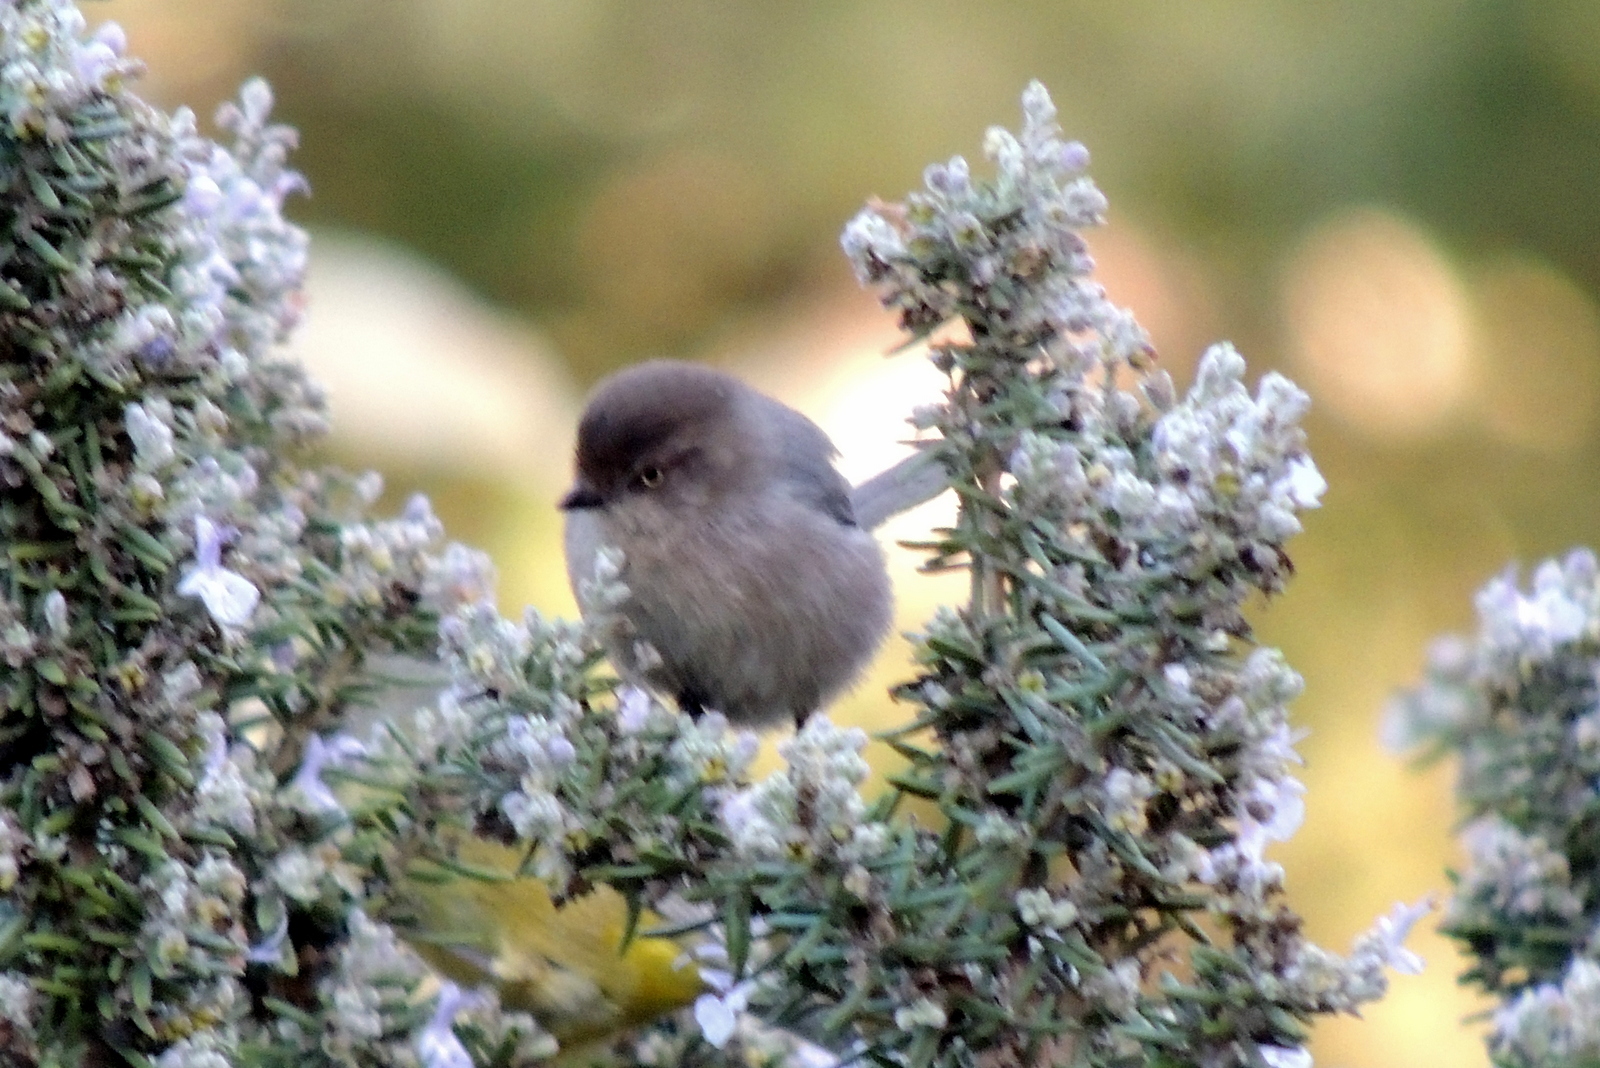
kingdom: Animalia
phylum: Chordata
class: Aves
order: Passeriformes
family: Aegithalidae
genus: Psaltriparus
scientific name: Psaltriparus minimus
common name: American bushtit
